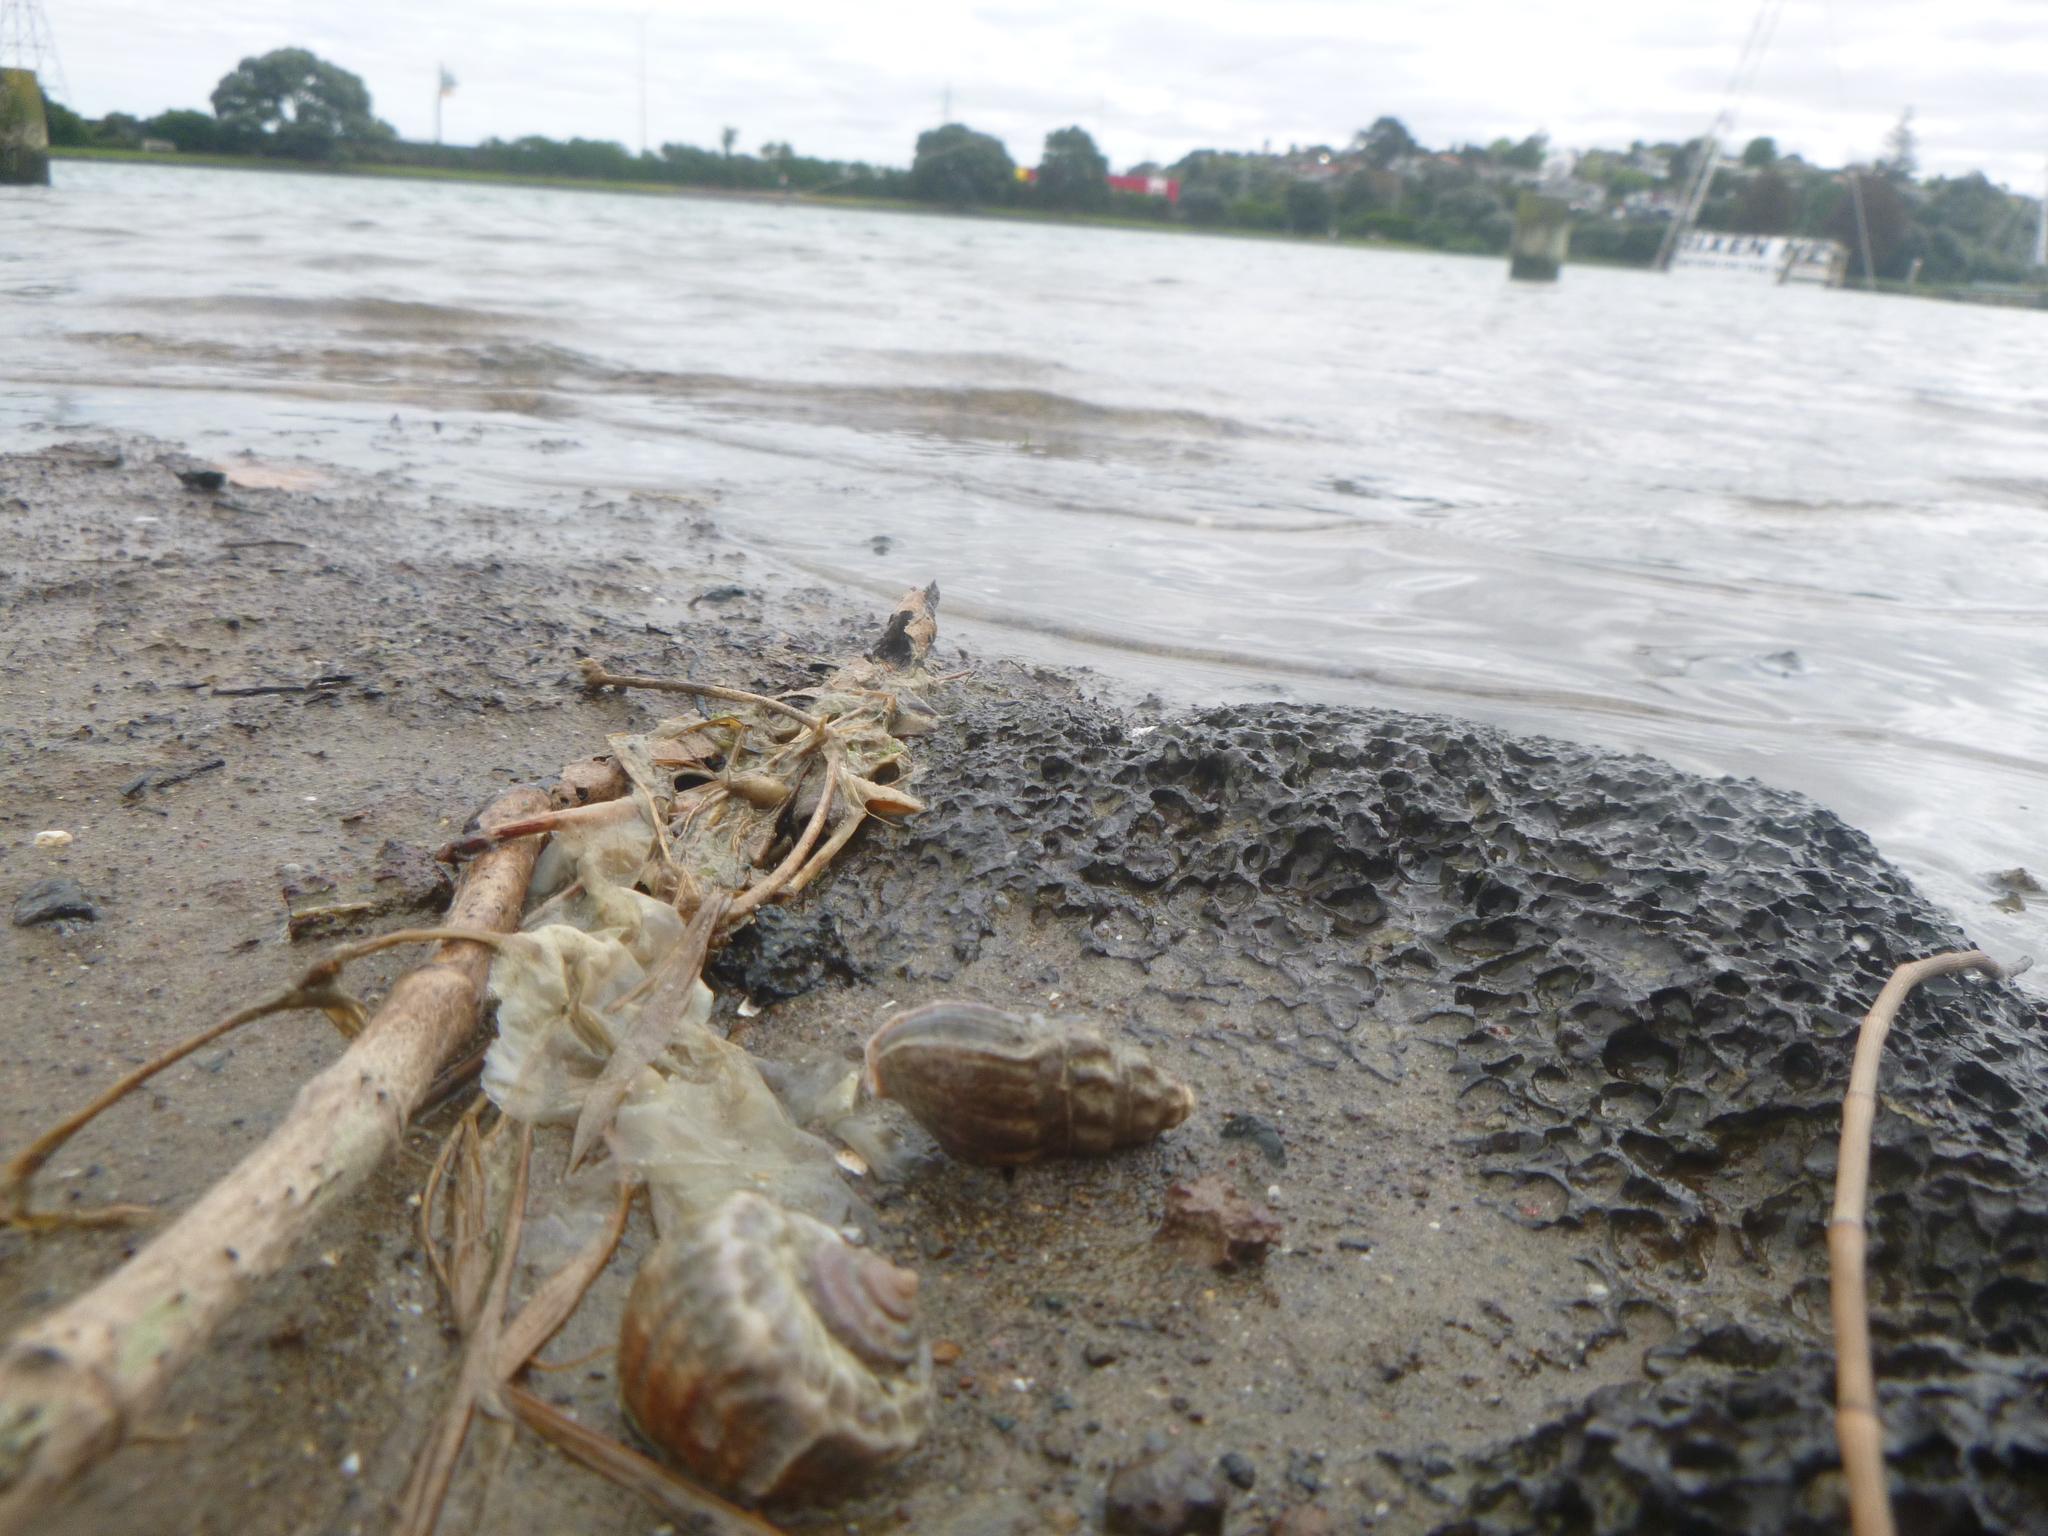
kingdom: Animalia
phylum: Mollusca
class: Gastropoda
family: Amphibolidae
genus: Amphibola
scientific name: Amphibola crenata
